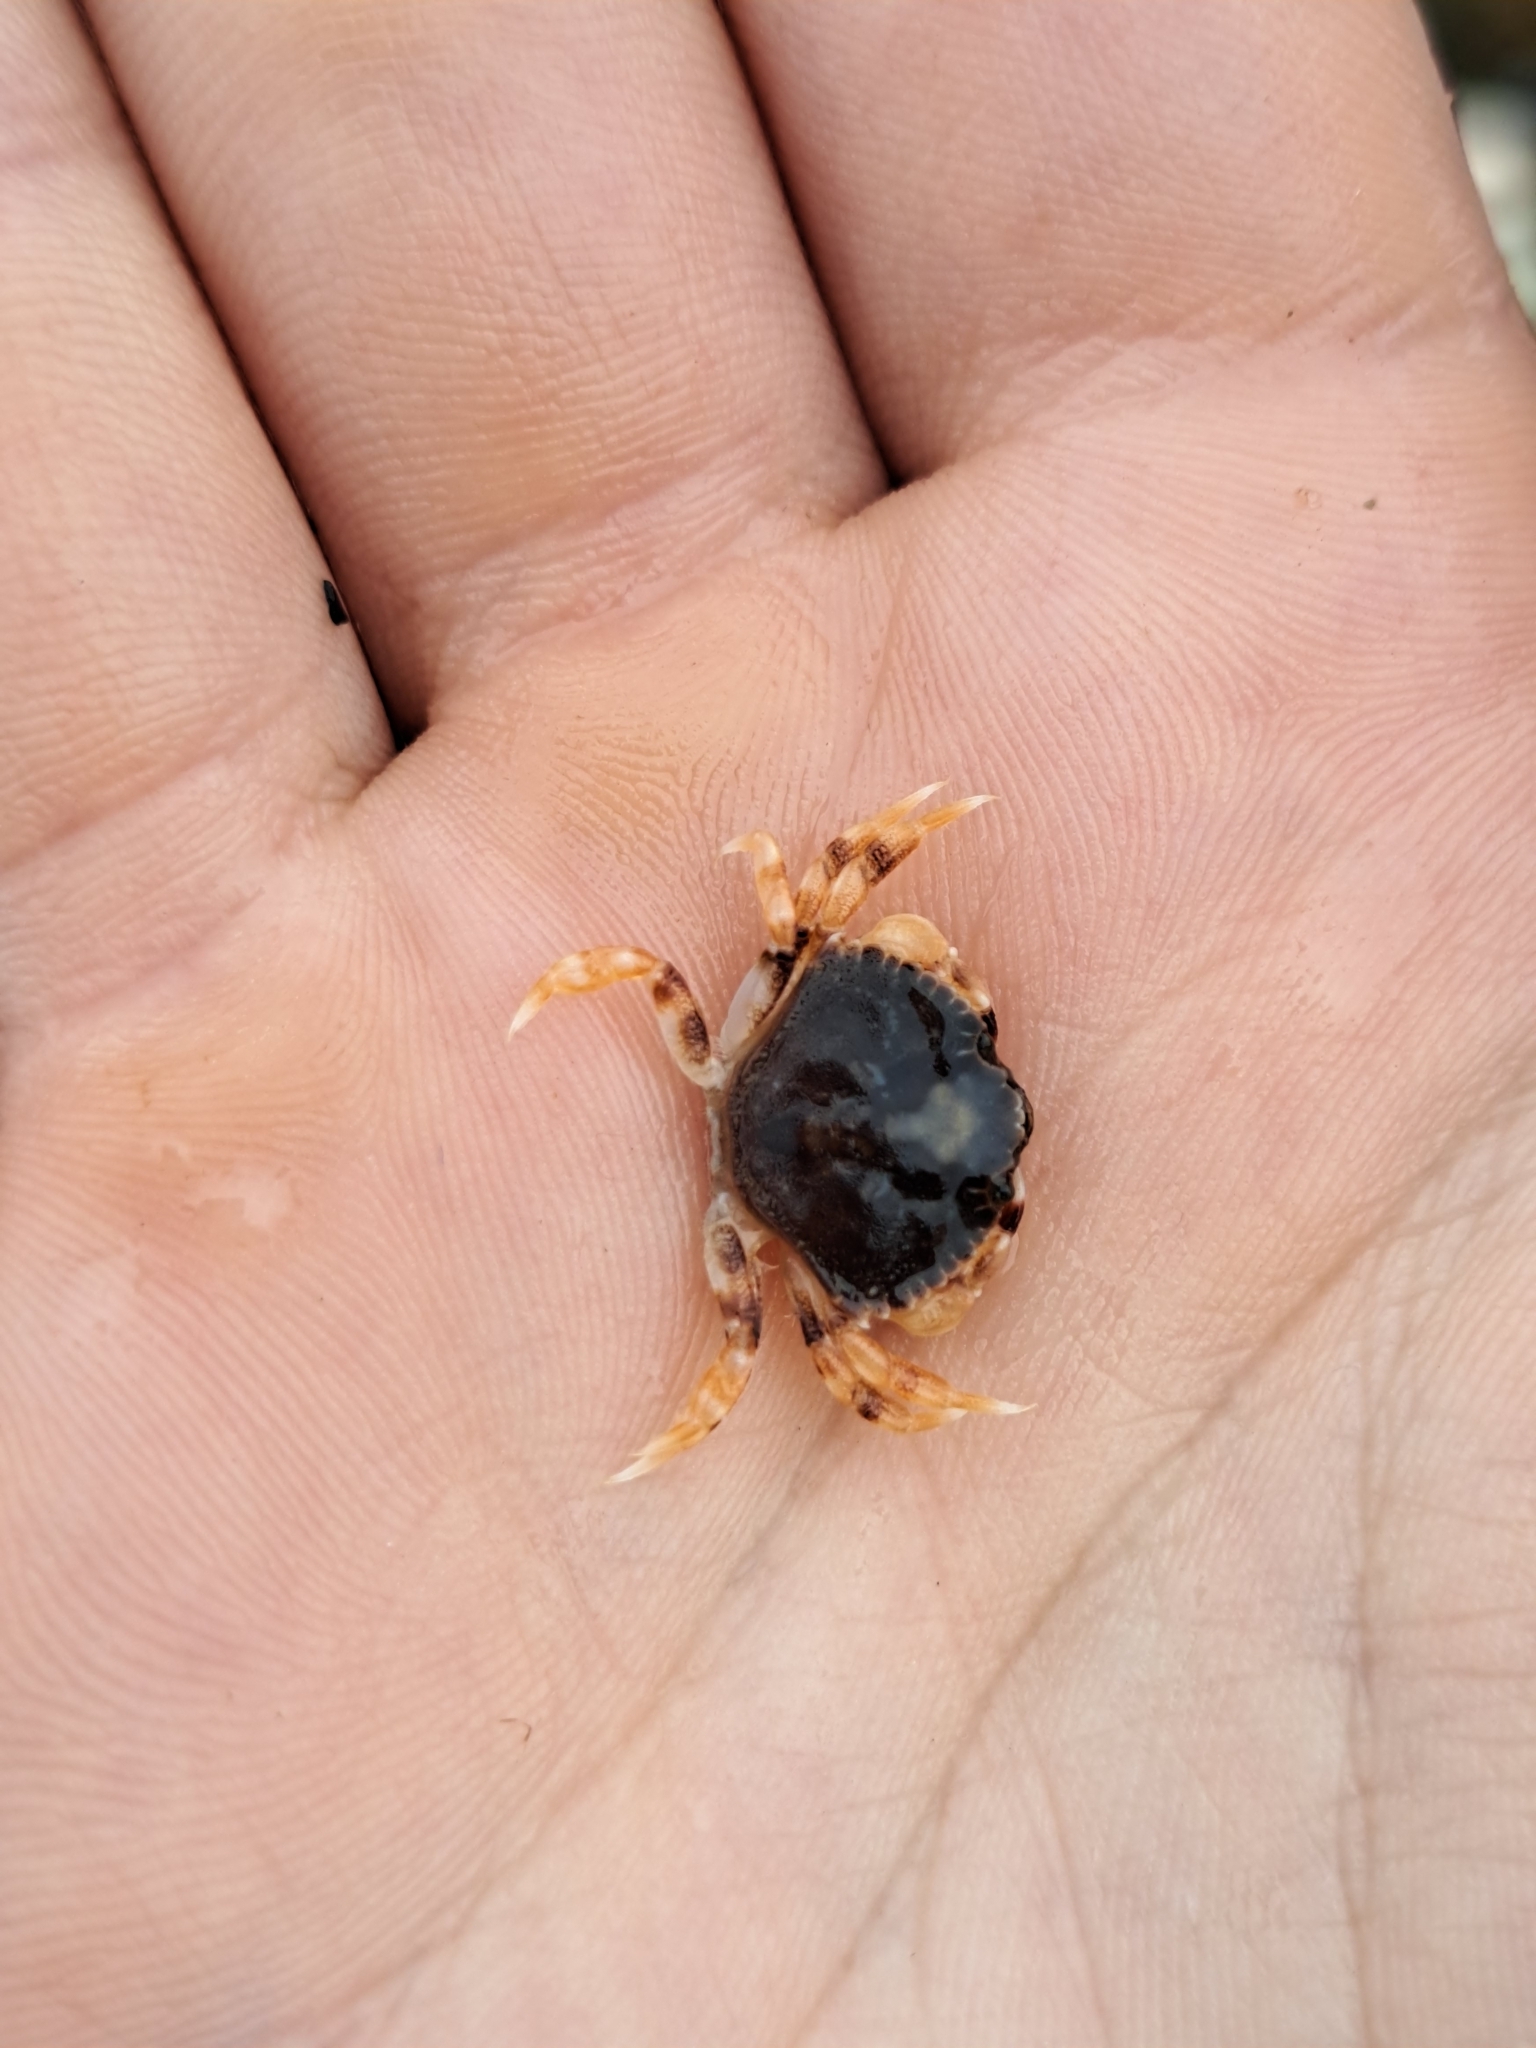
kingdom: Animalia
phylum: Arthropoda
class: Malacostraca
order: Decapoda
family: Cancridae
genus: Cancer
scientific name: Cancer irroratus
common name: Atlantic rock crab
